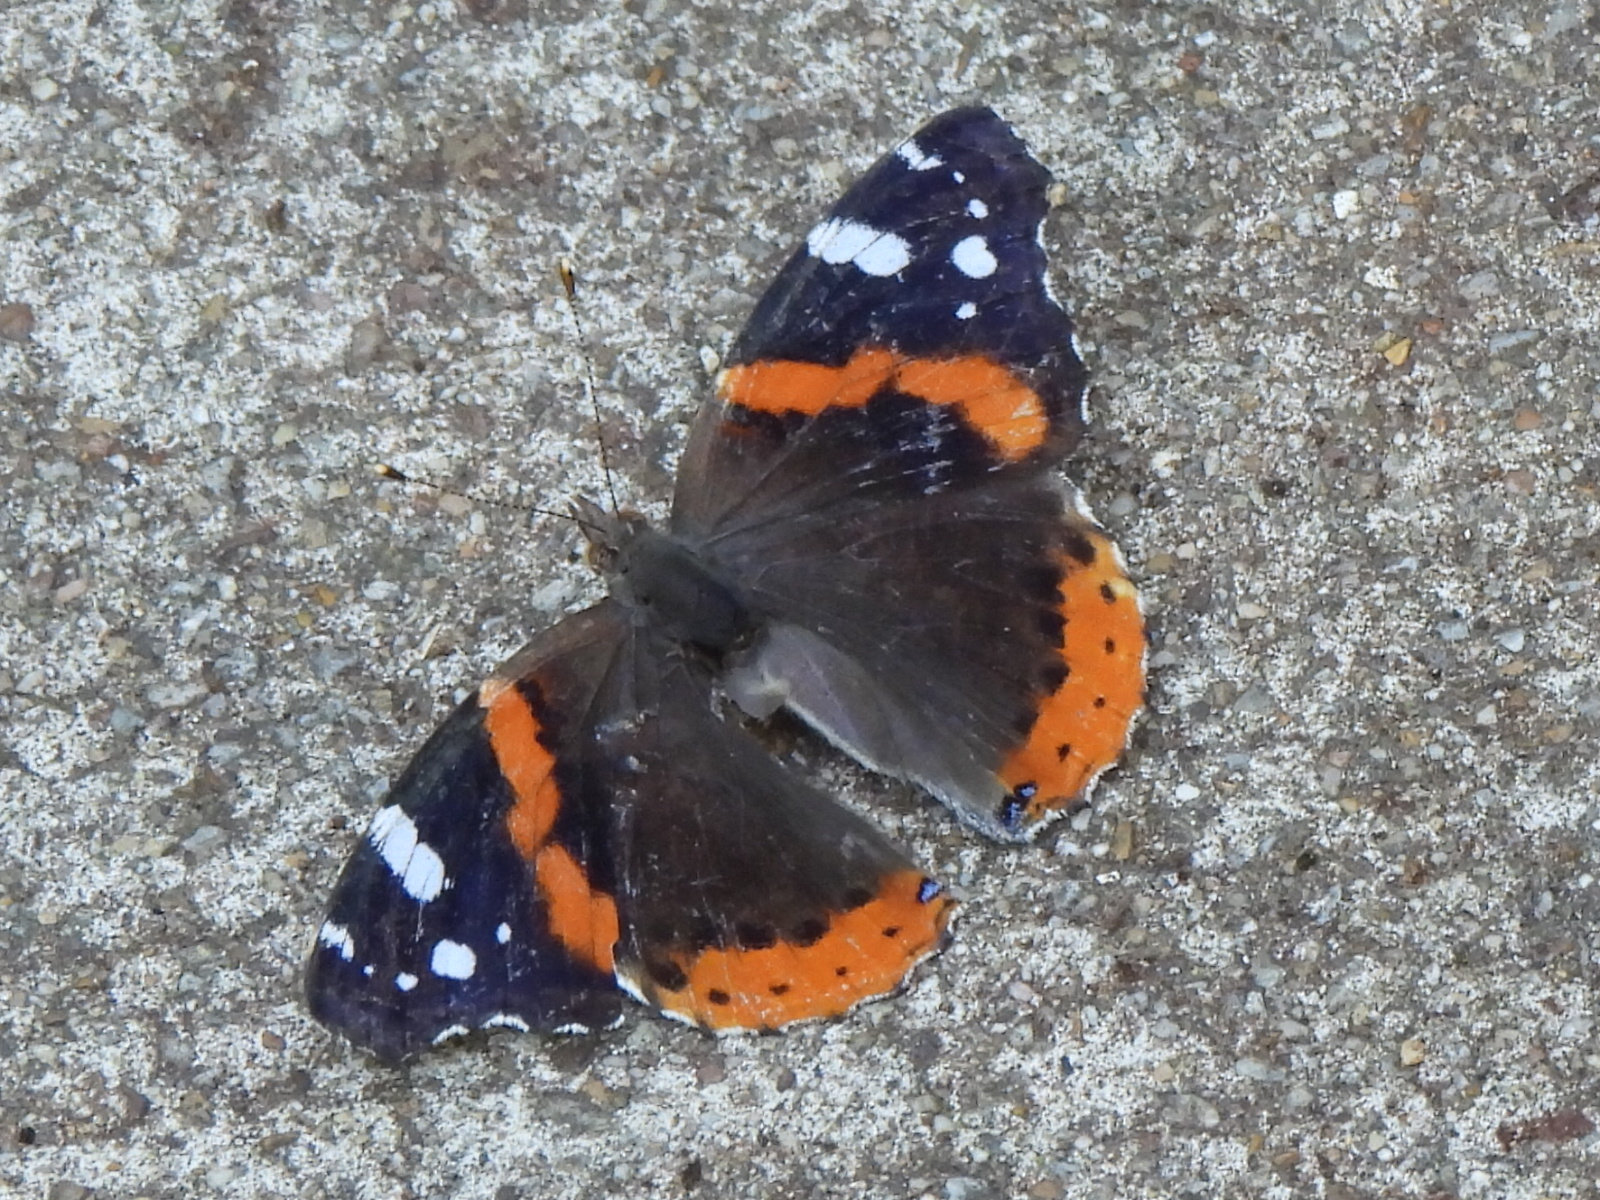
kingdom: Animalia
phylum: Arthropoda
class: Insecta
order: Lepidoptera
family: Nymphalidae
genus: Vanessa
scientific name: Vanessa atalanta
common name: Red admiral
